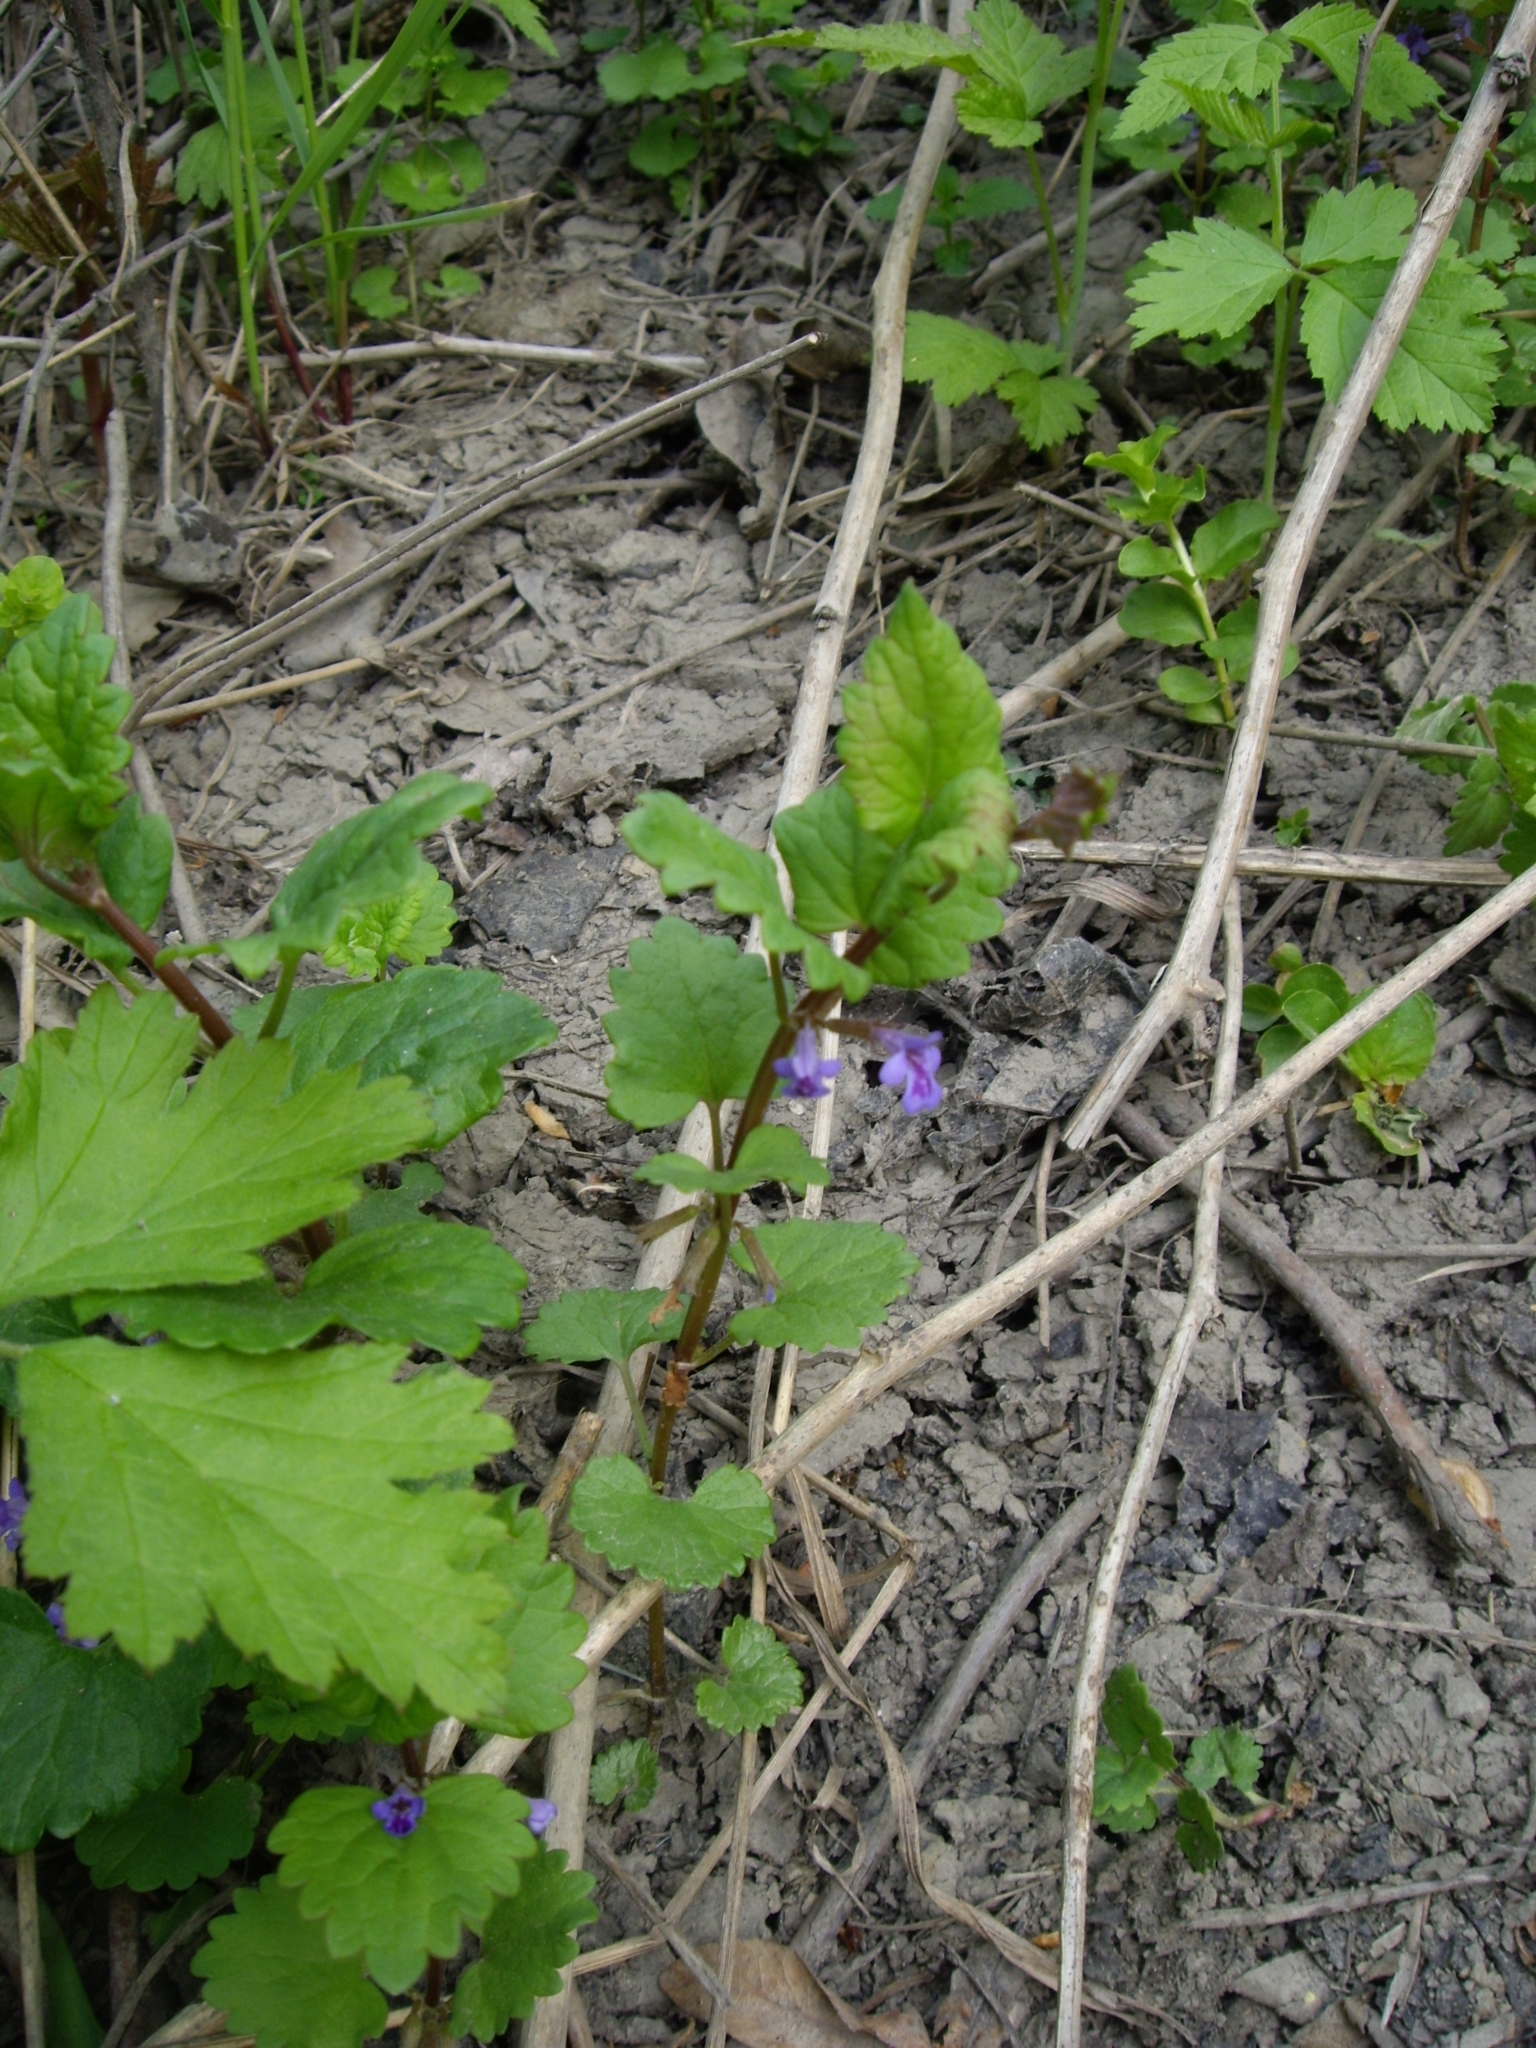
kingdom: Plantae
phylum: Tracheophyta
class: Magnoliopsida
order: Lamiales
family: Lamiaceae
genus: Glechoma
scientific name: Glechoma hederacea
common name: Ground ivy
